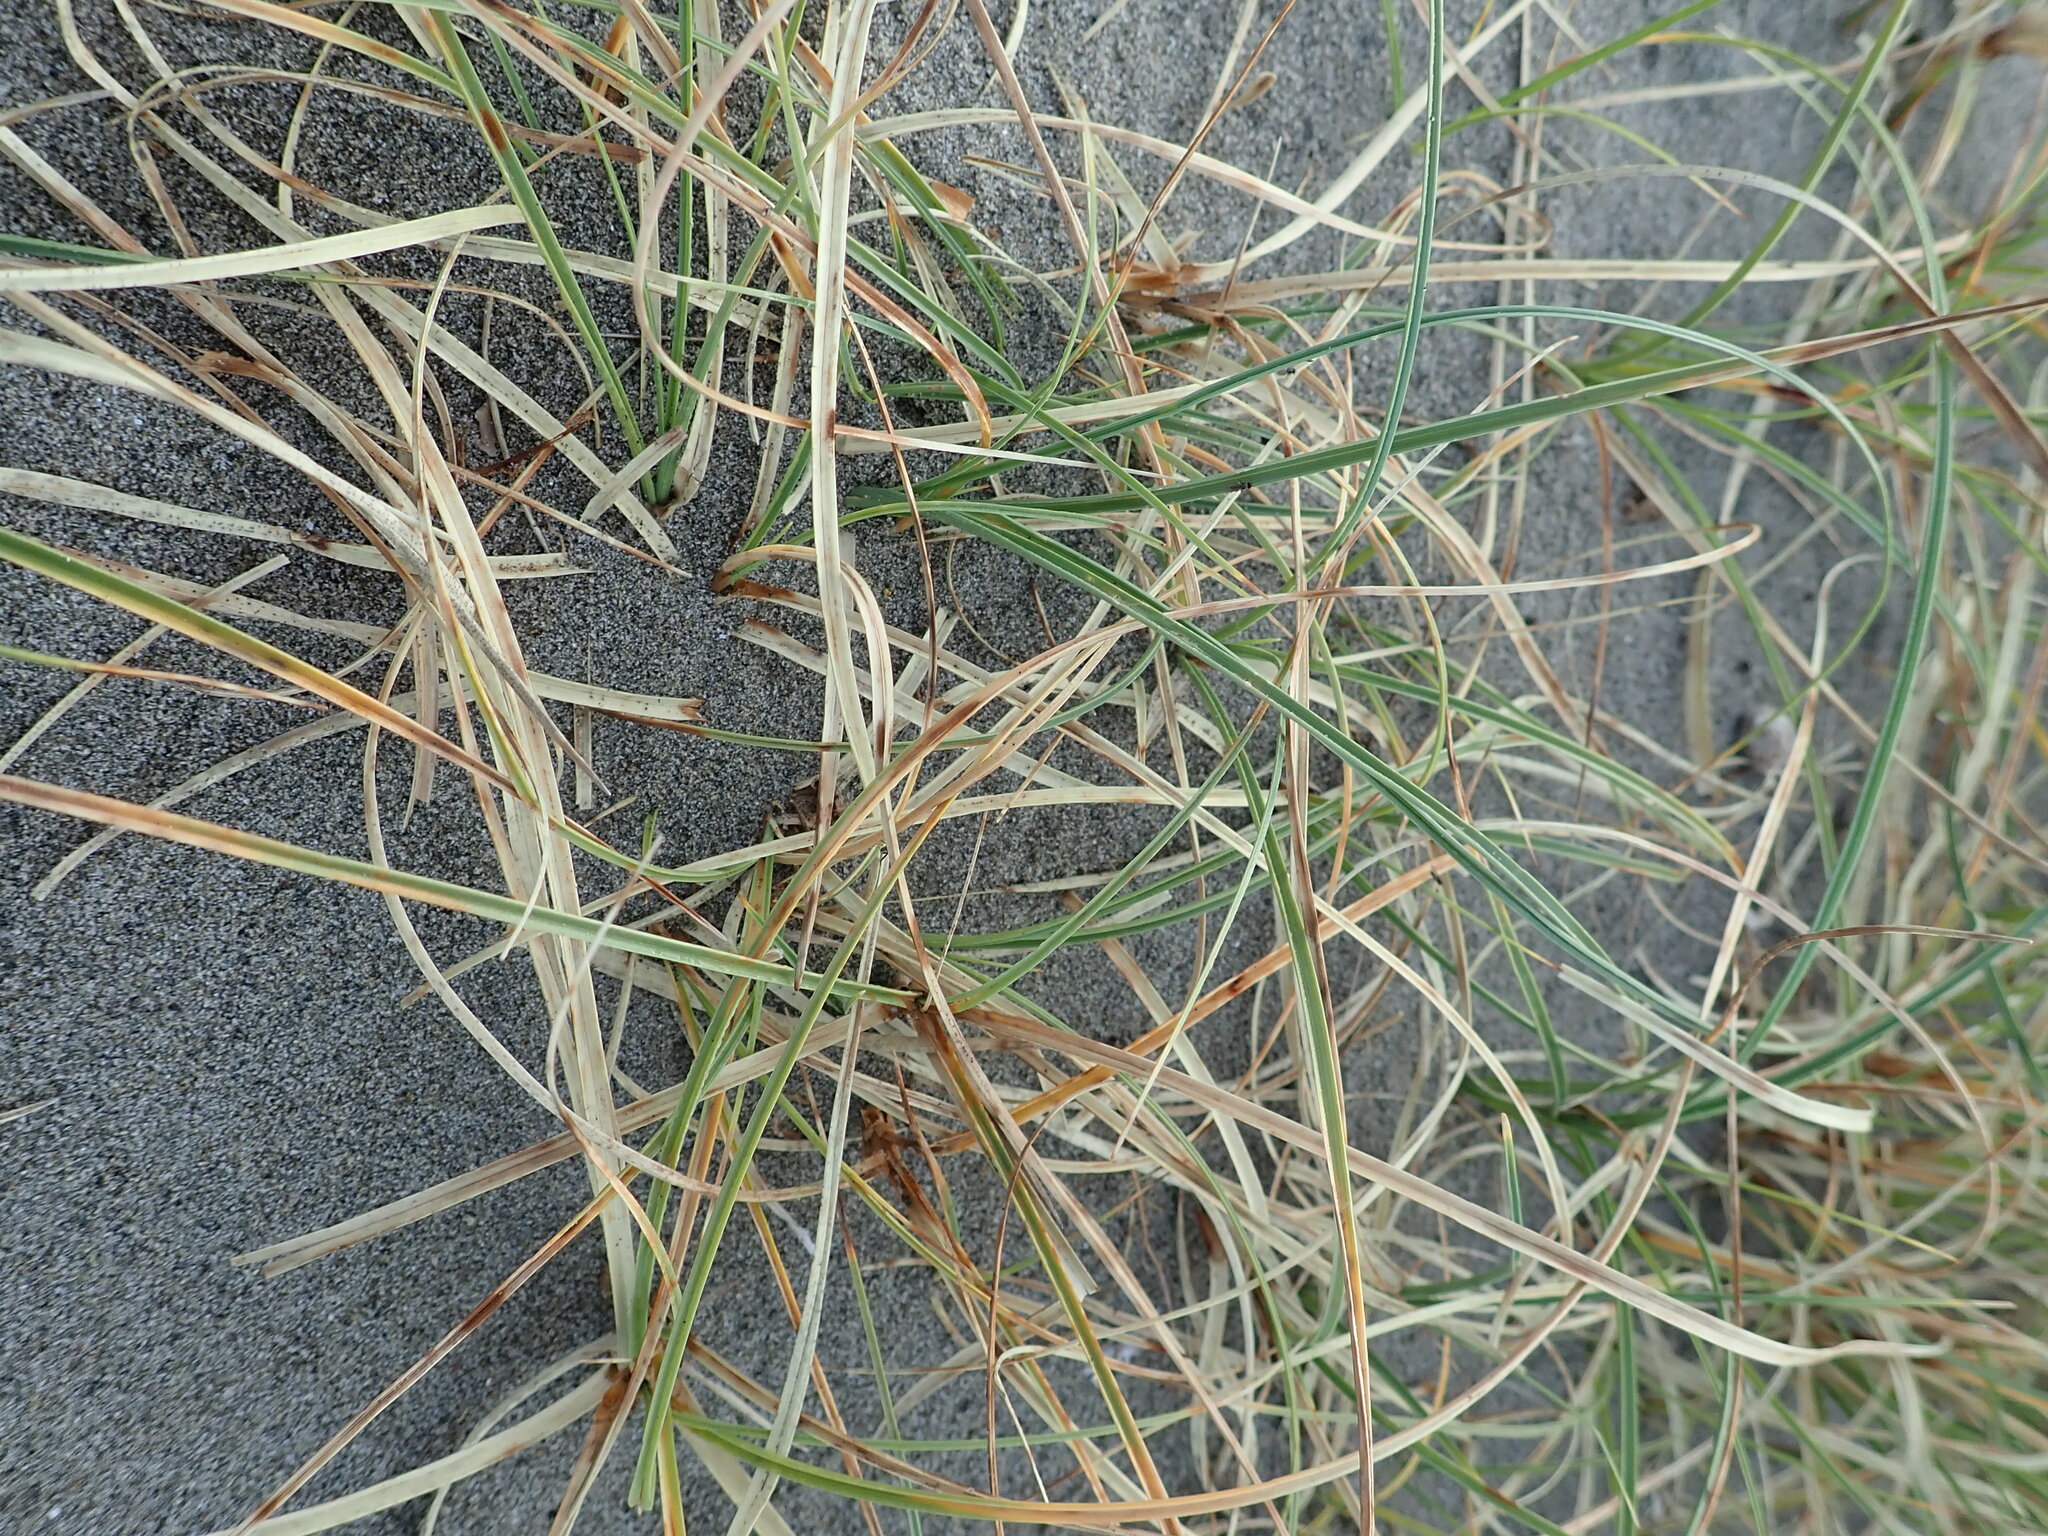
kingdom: Plantae
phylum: Tracheophyta
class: Liliopsida
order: Poales
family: Cyperaceae
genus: Carex
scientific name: Carex pumila
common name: Dwarf sedge
